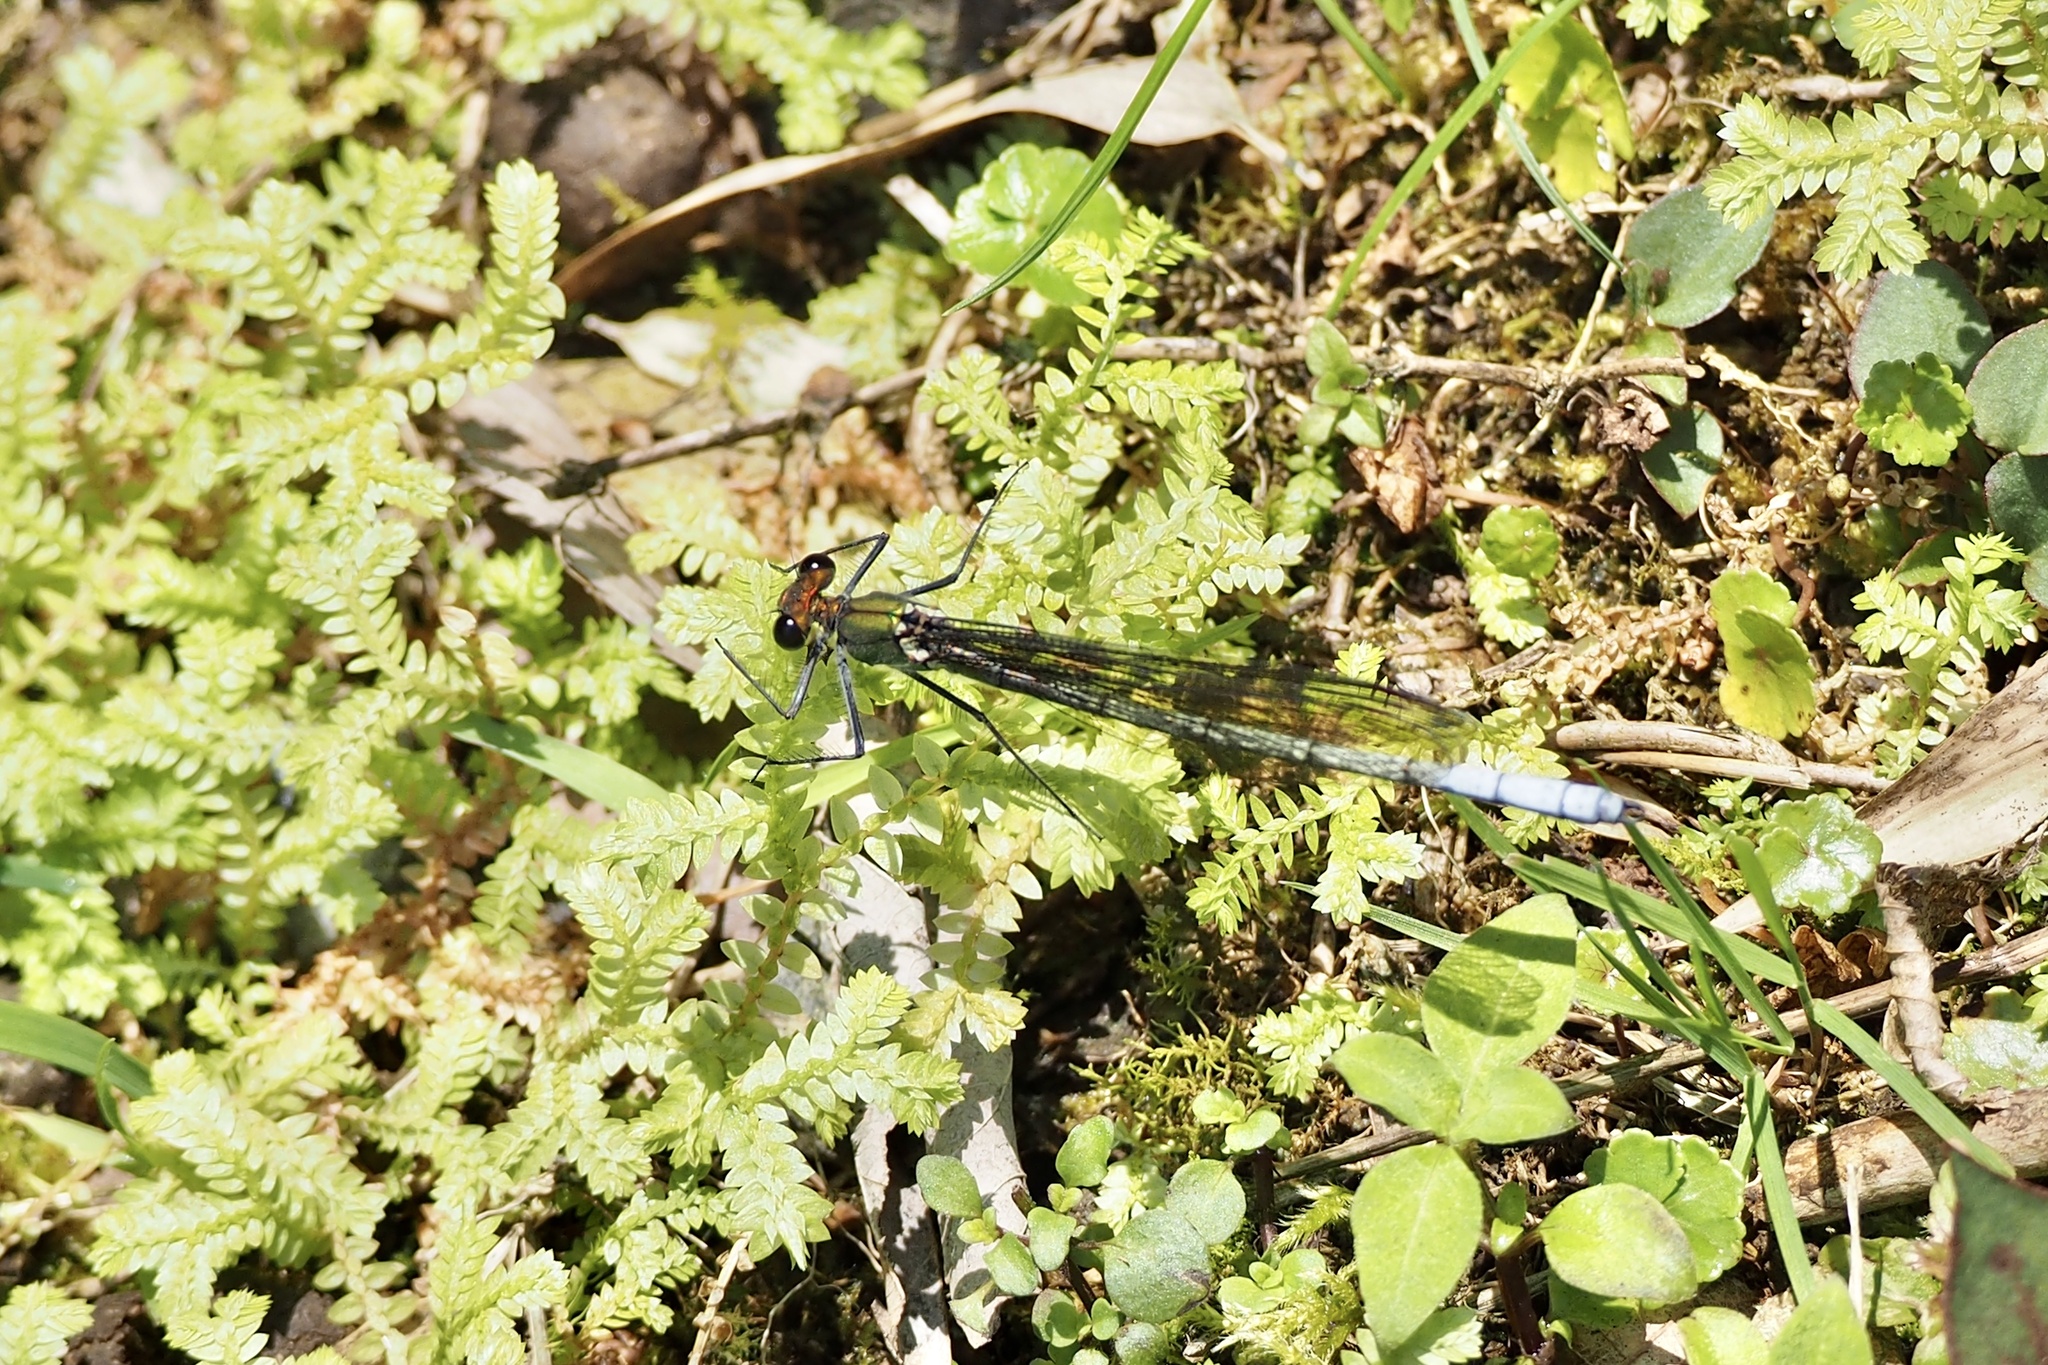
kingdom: Animalia
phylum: Arthropoda
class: Insecta
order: Odonata
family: Calopterygidae
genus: Mnais
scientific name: Mnais costalis
